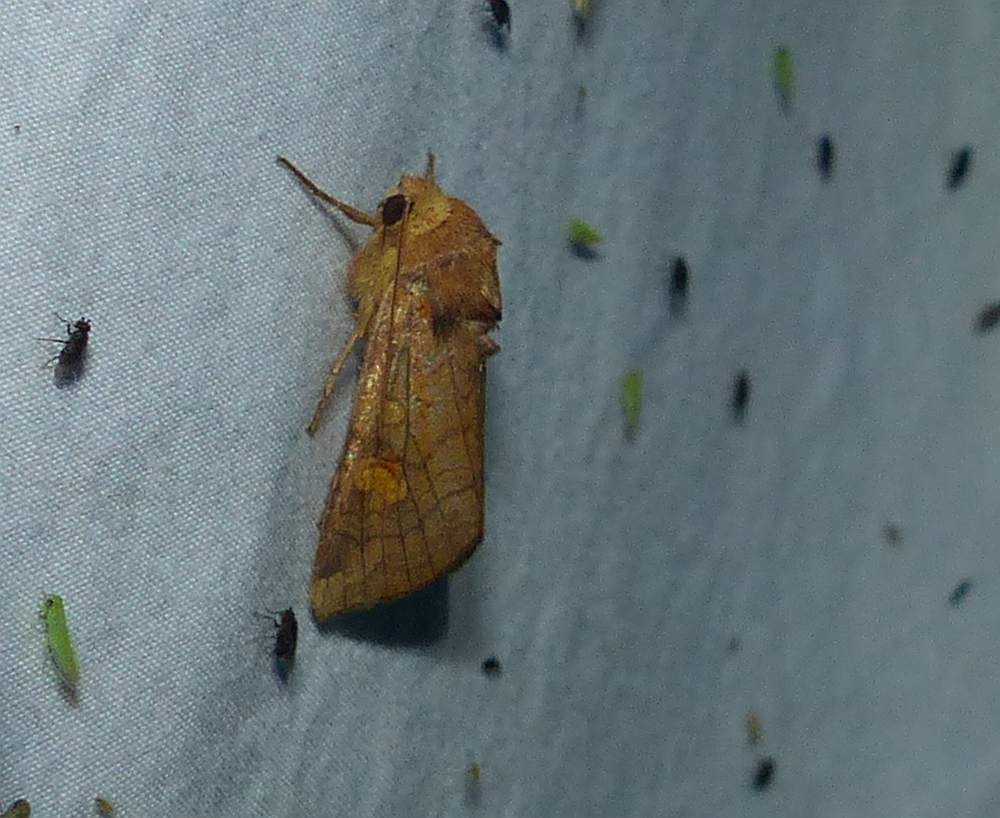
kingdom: Animalia
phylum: Arthropoda
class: Insecta
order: Lepidoptera
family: Noctuidae
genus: Amphipoea
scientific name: Amphipoea americana
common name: American ear moth
